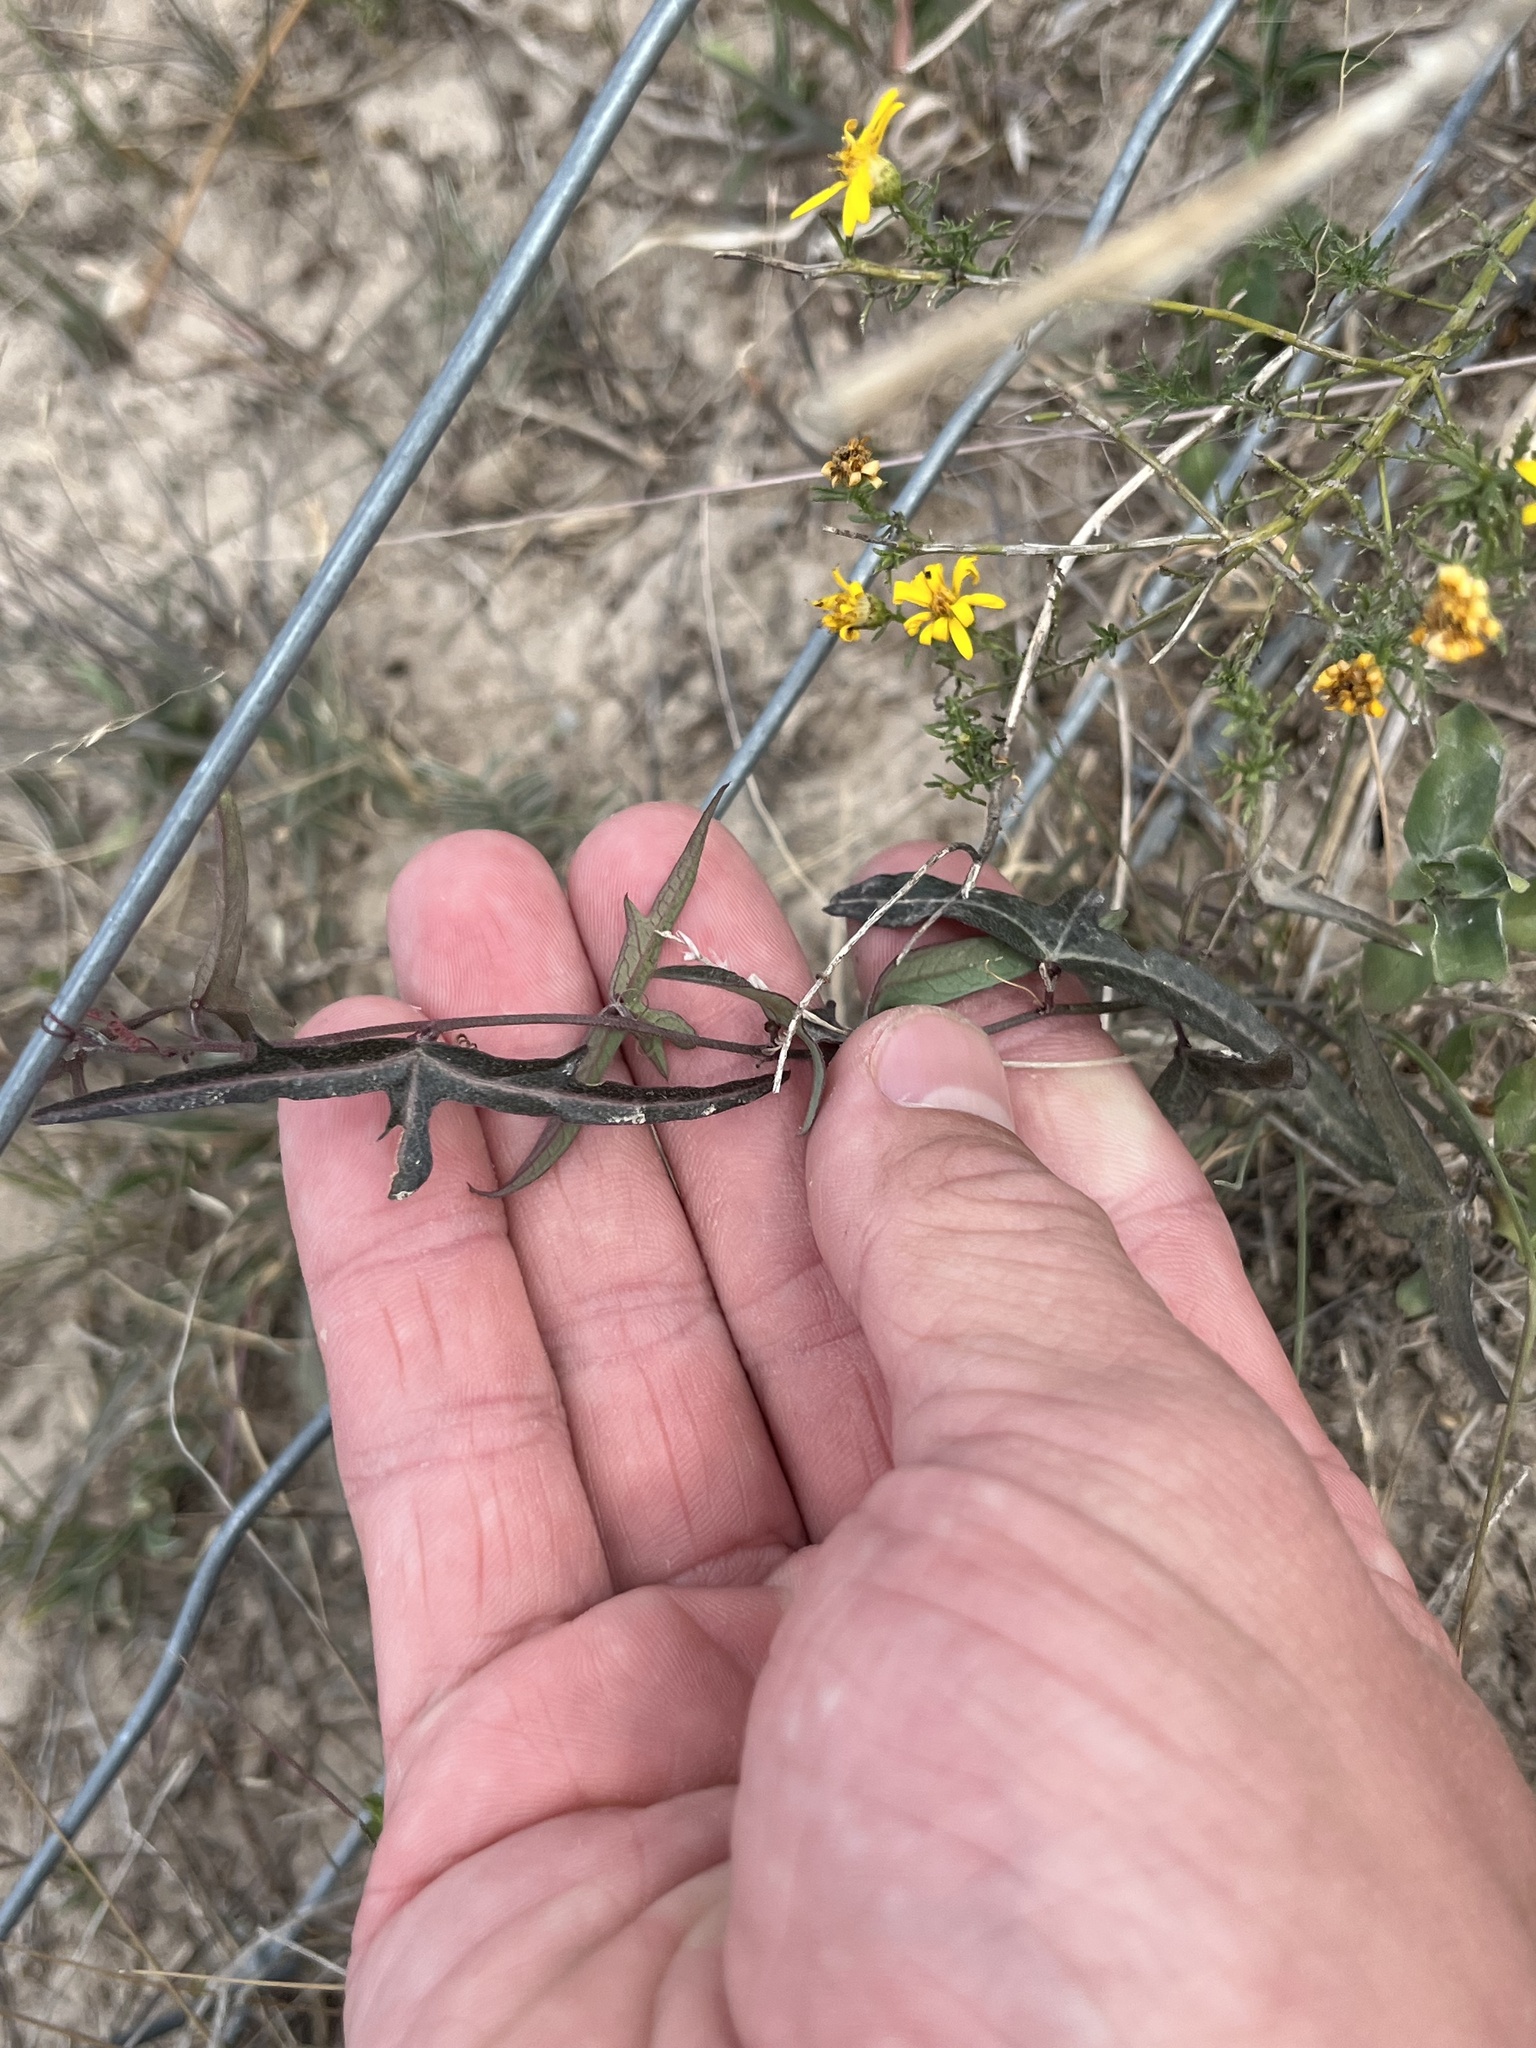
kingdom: Plantae
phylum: Tracheophyta
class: Magnoliopsida
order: Malpighiales
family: Passifloraceae
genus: Passiflora
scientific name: Passiflora tenuiloba
